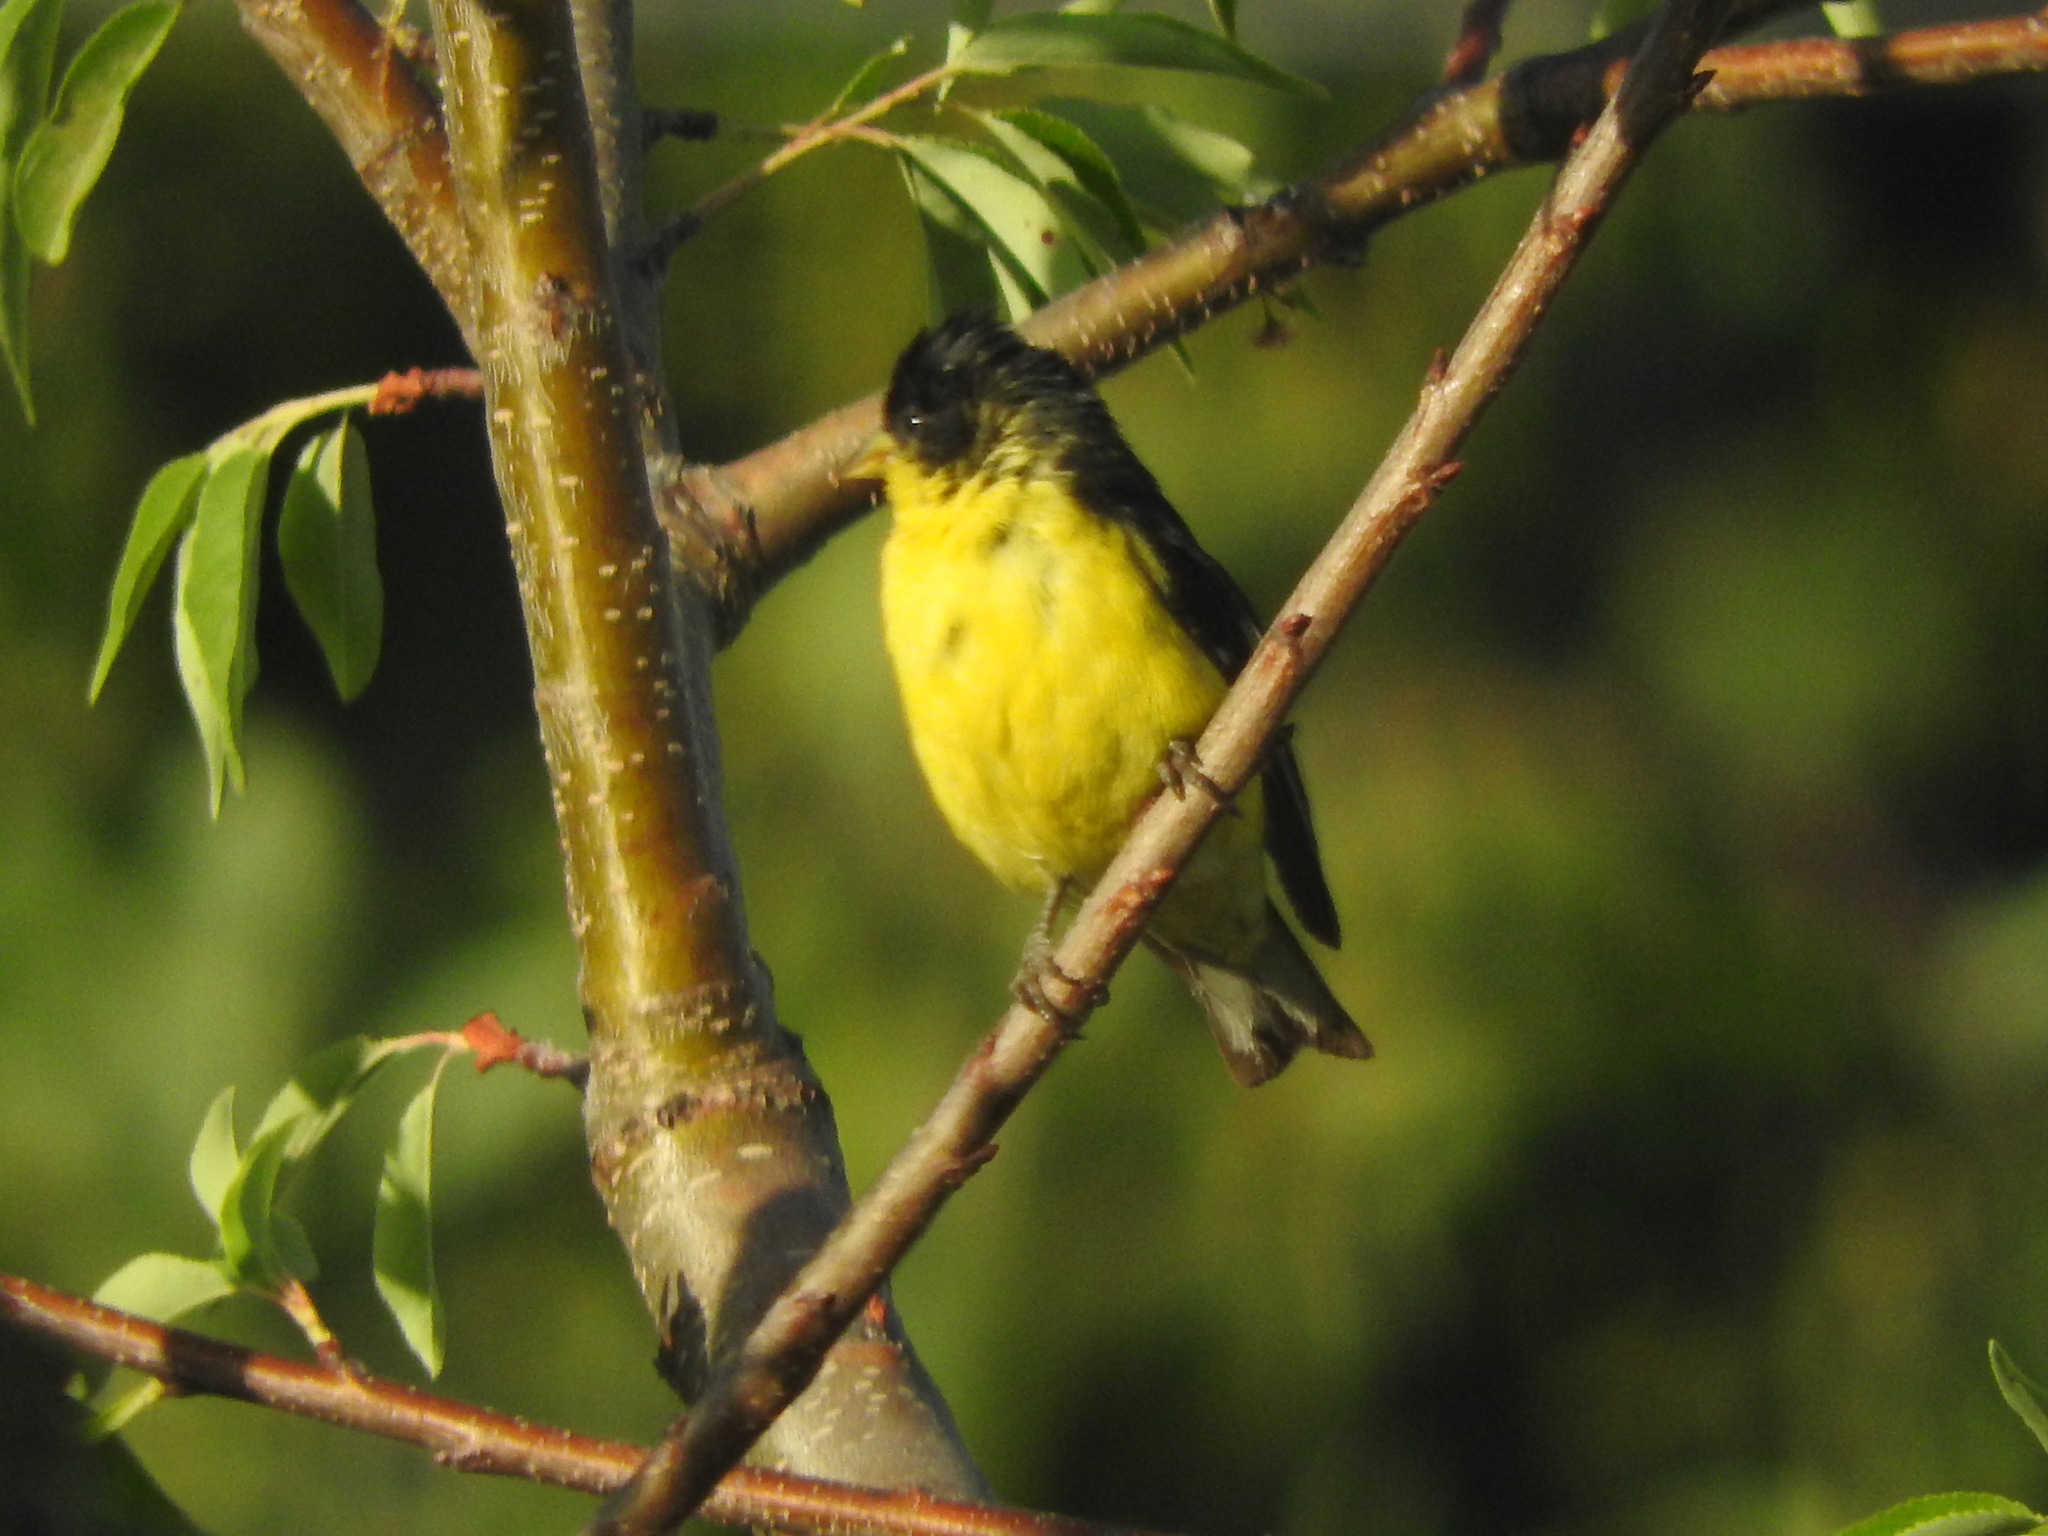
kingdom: Animalia
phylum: Chordata
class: Aves
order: Passeriformes
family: Fringillidae
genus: Spinus
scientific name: Spinus psaltria
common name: Lesser goldfinch
